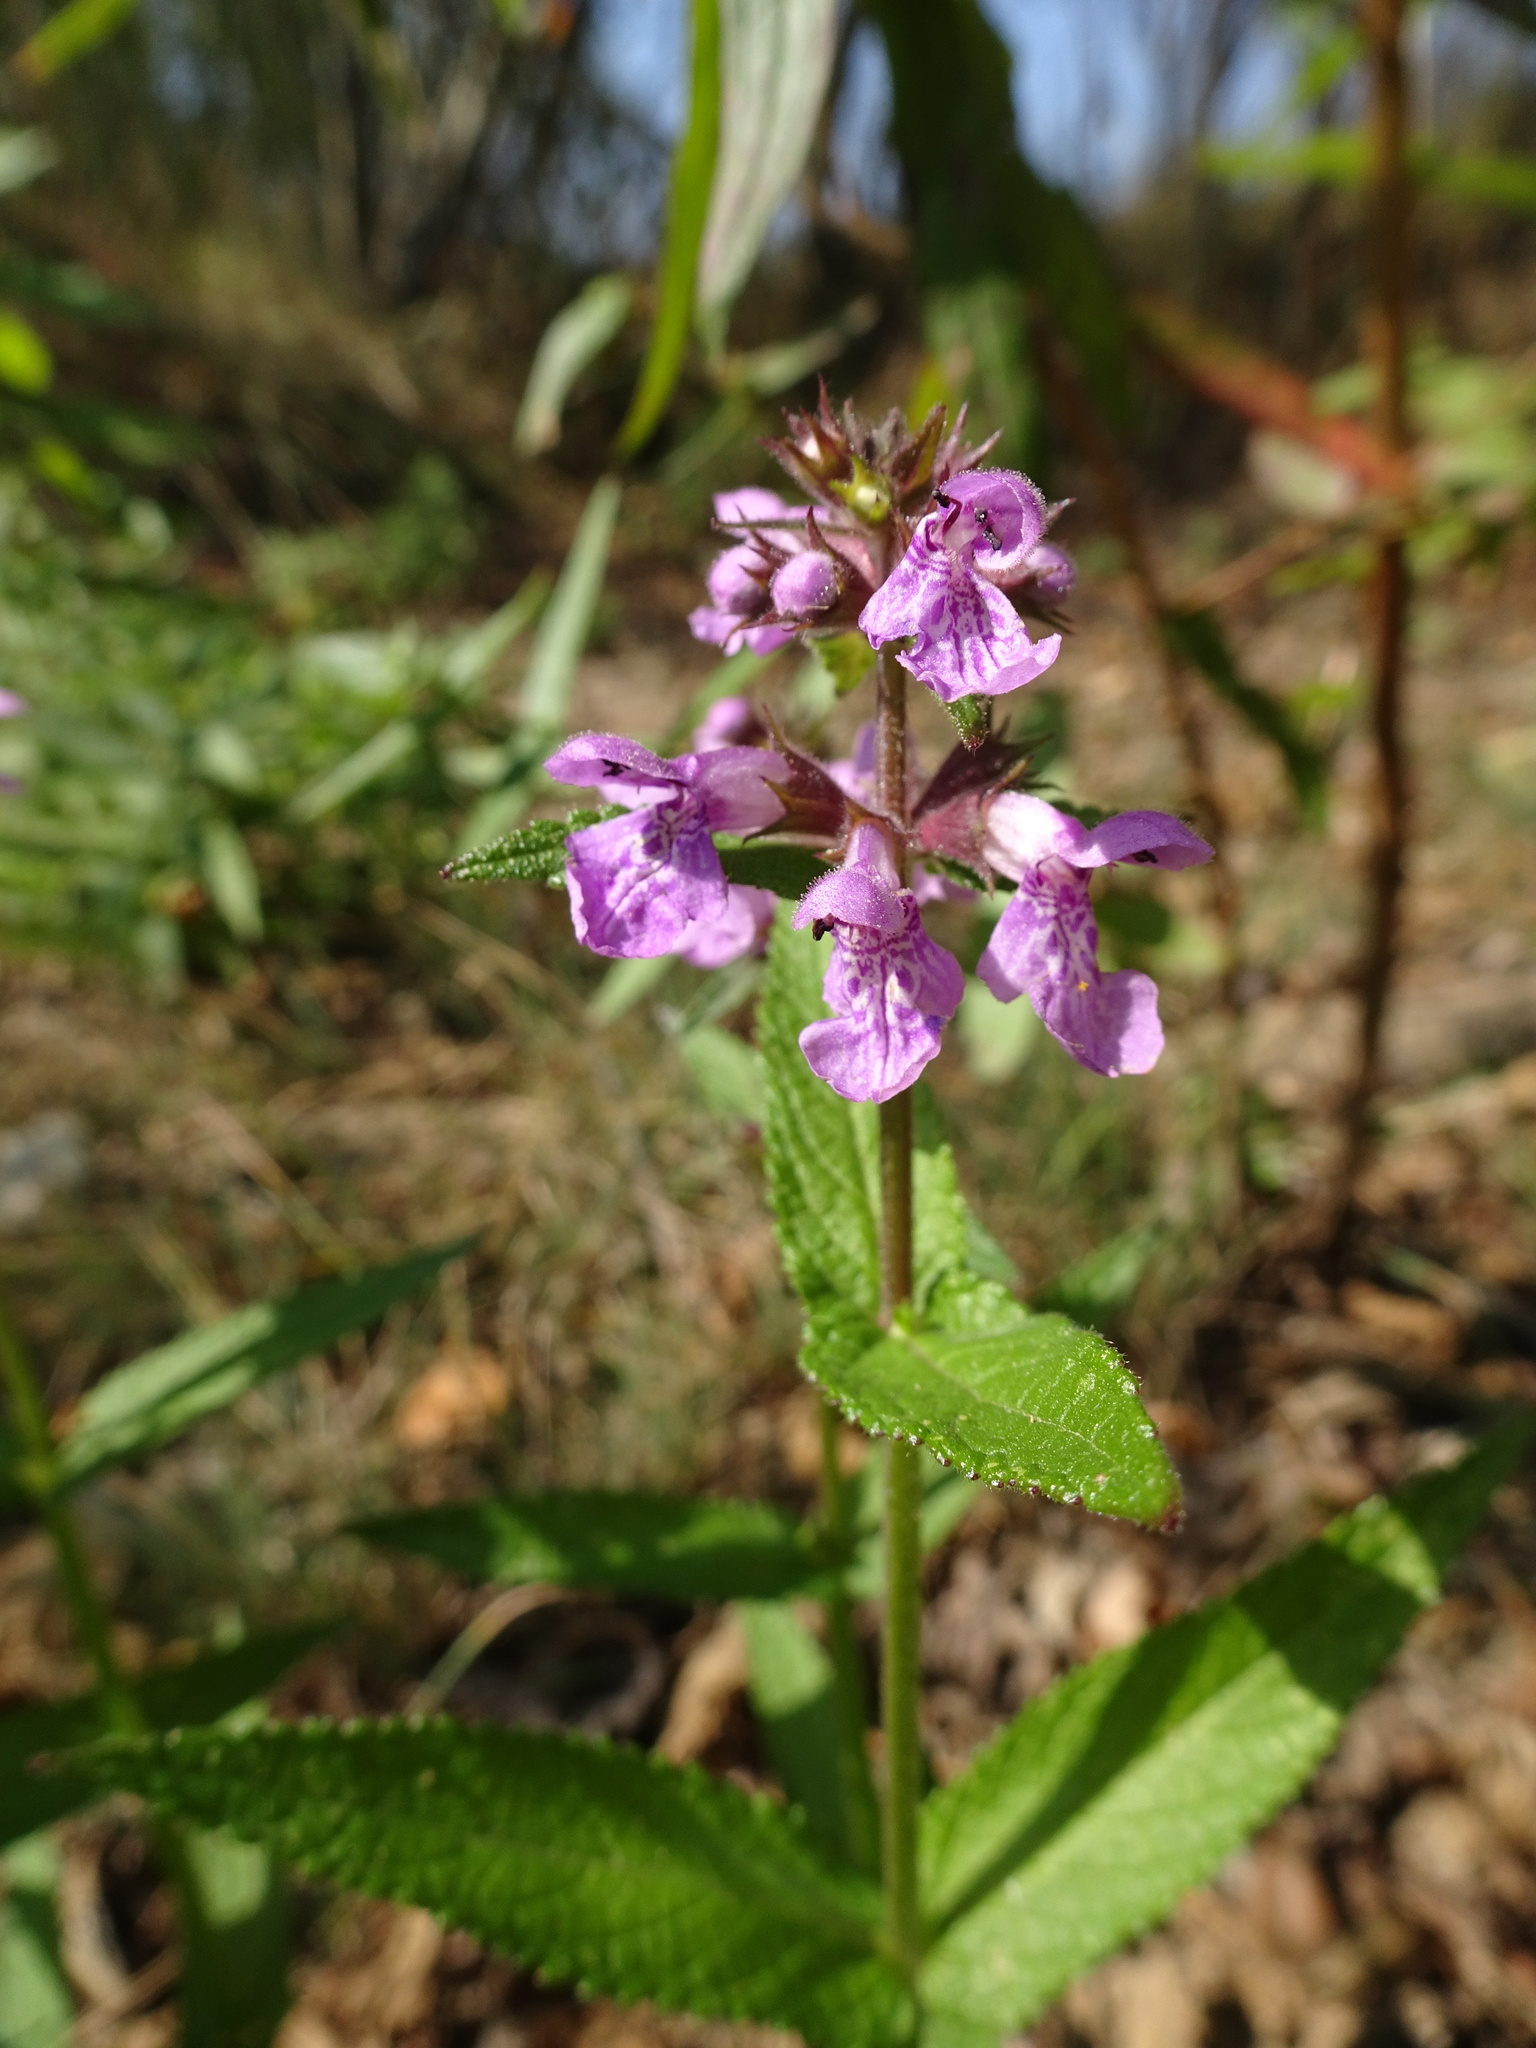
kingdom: Plantae
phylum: Tracheophyta
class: Magnoliopsida
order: Lamiales
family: Lamiaceae
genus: Stachys
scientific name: Stachys palustris
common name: Marsh woundwort
